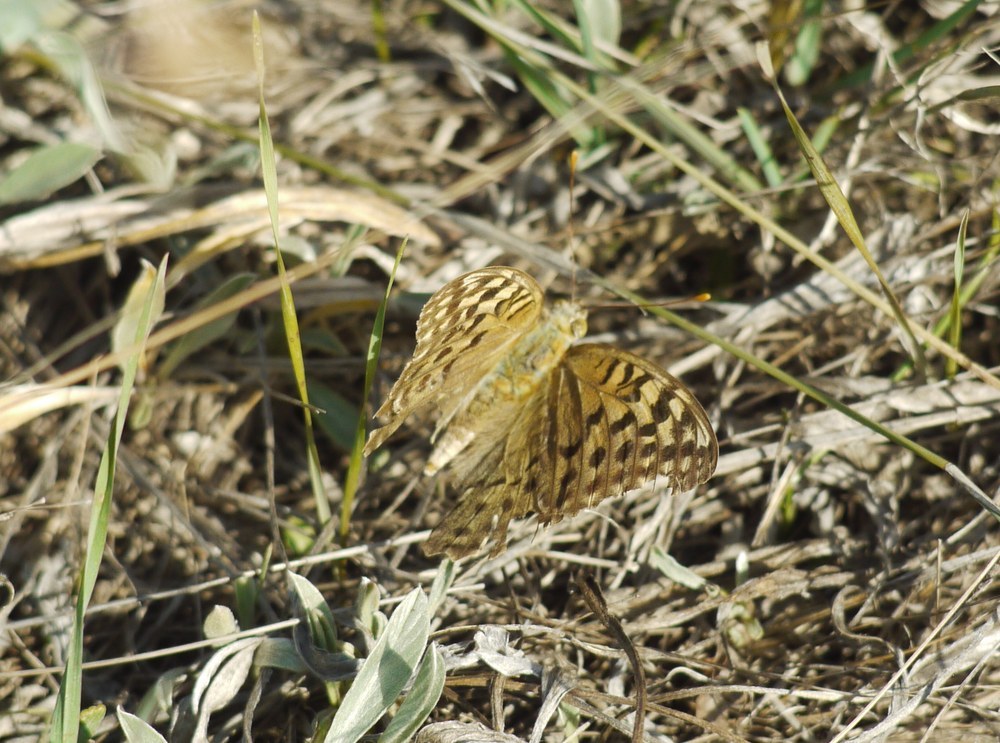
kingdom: Animalia
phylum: Arthropoda
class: Insecta
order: Lepidoptera
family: Nymphalidae
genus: Damora
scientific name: Damora pandora
